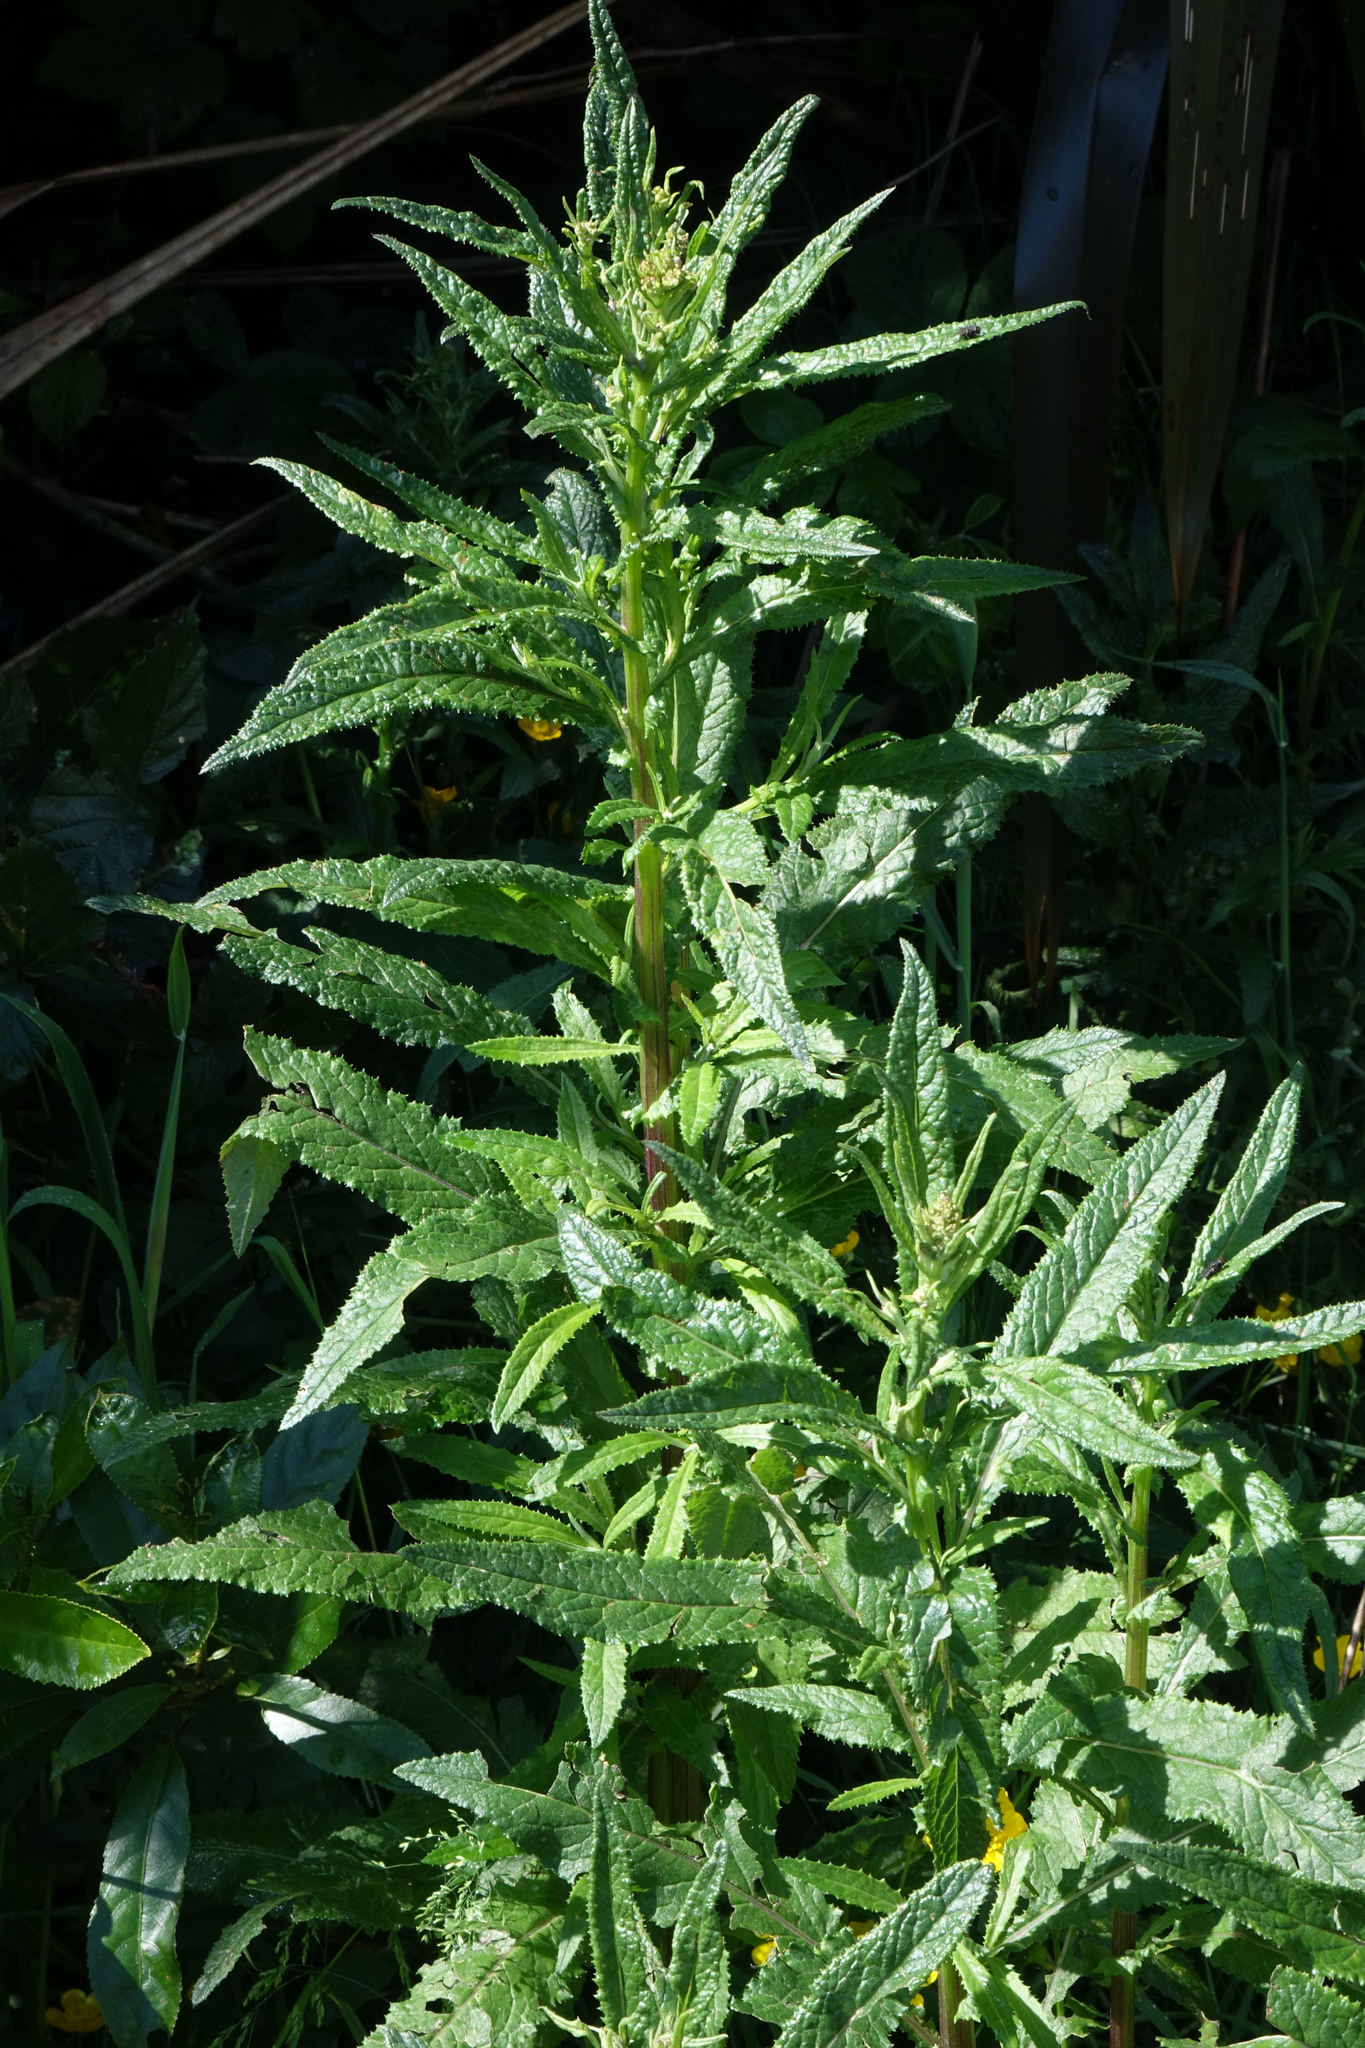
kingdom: Plantae
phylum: Tracheophyta
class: Magnoliopsida
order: Asterales
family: Asteraceae
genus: Senecio
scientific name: Senecio minimus
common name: Toothed fireweed
